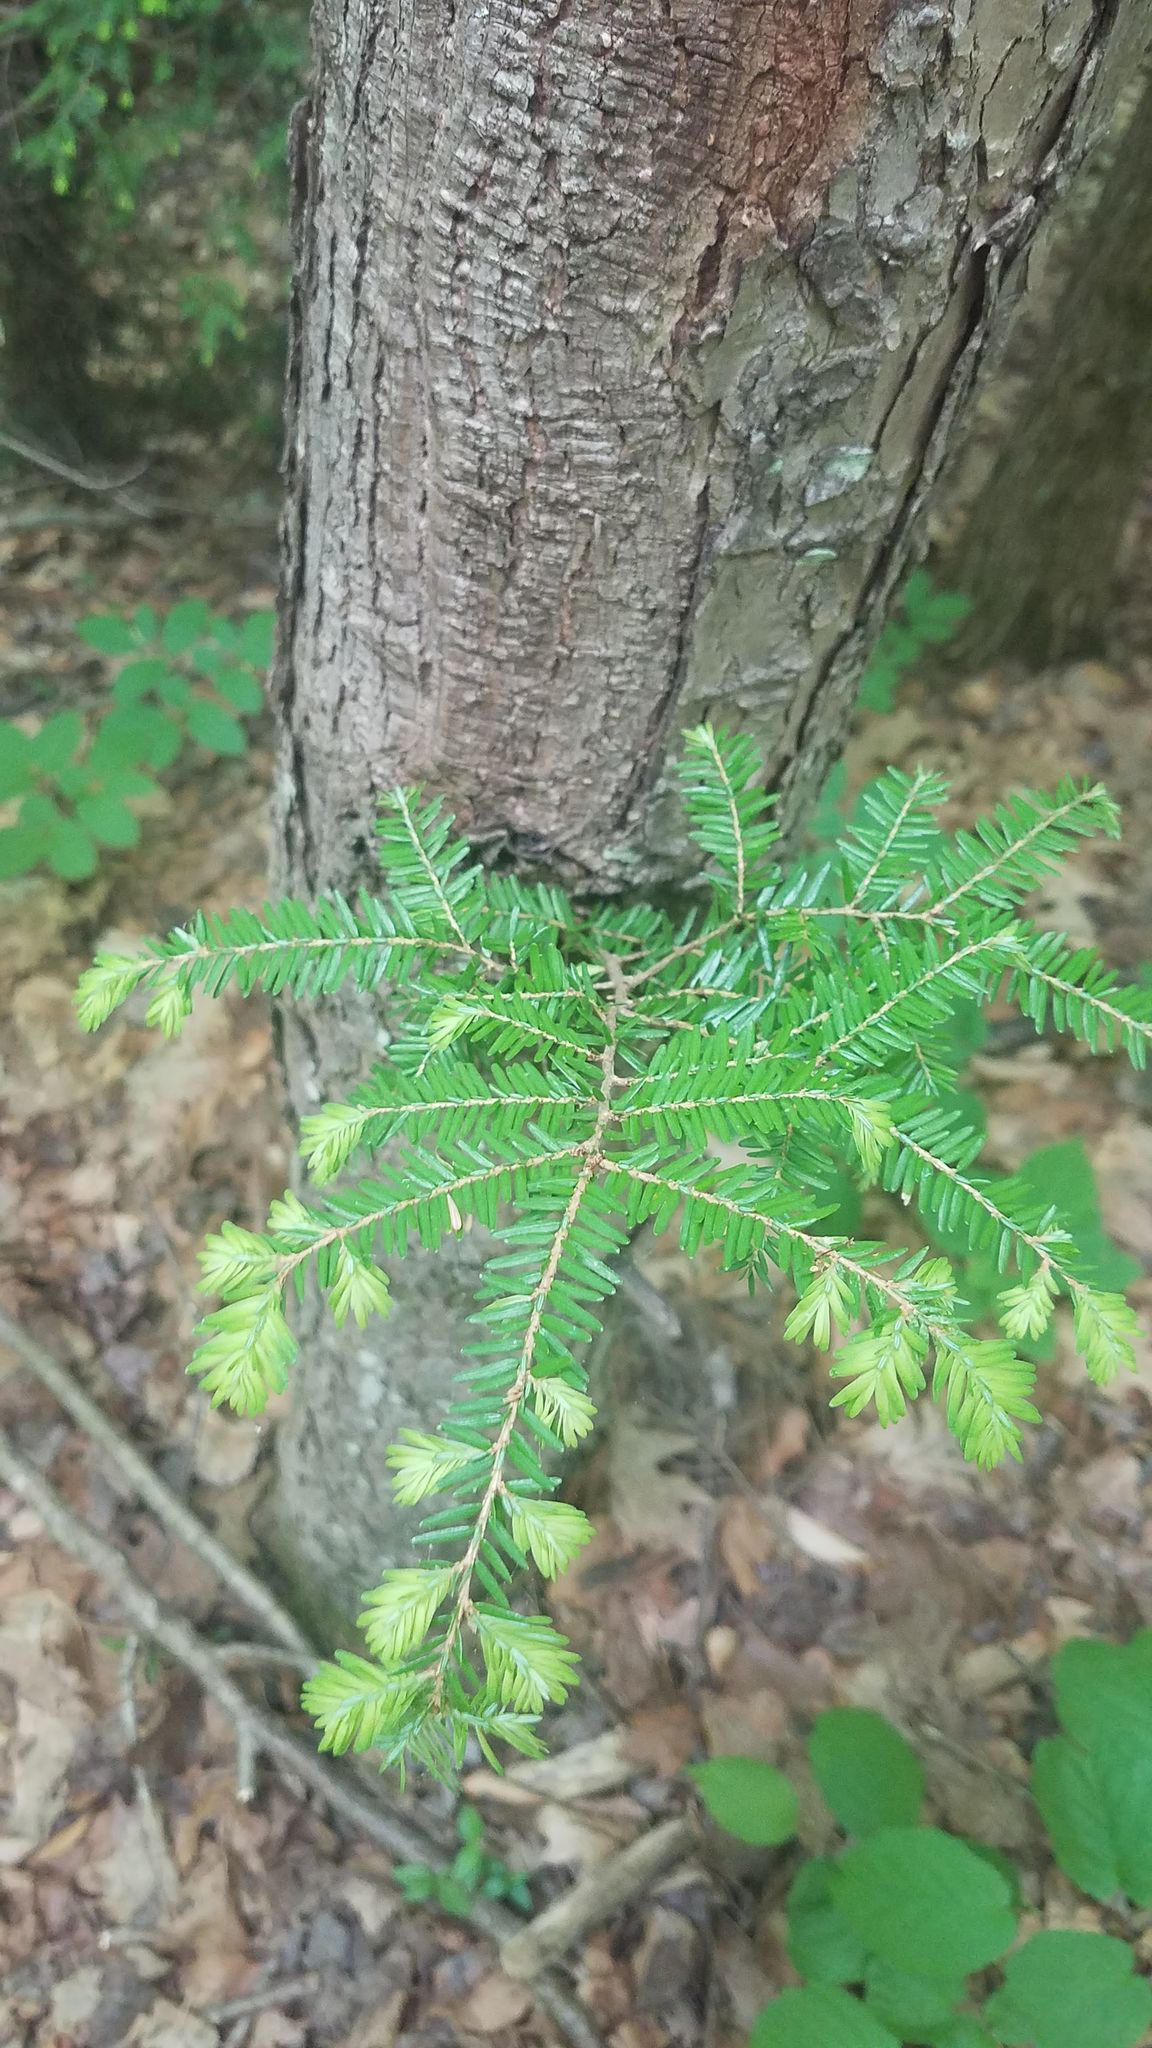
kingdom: Plantae
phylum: Tracheophyta
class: Pinopsida
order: Pinales
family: Pinaceae
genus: Tsuga
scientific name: Tsuga canadensis
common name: Eastern hemlock
